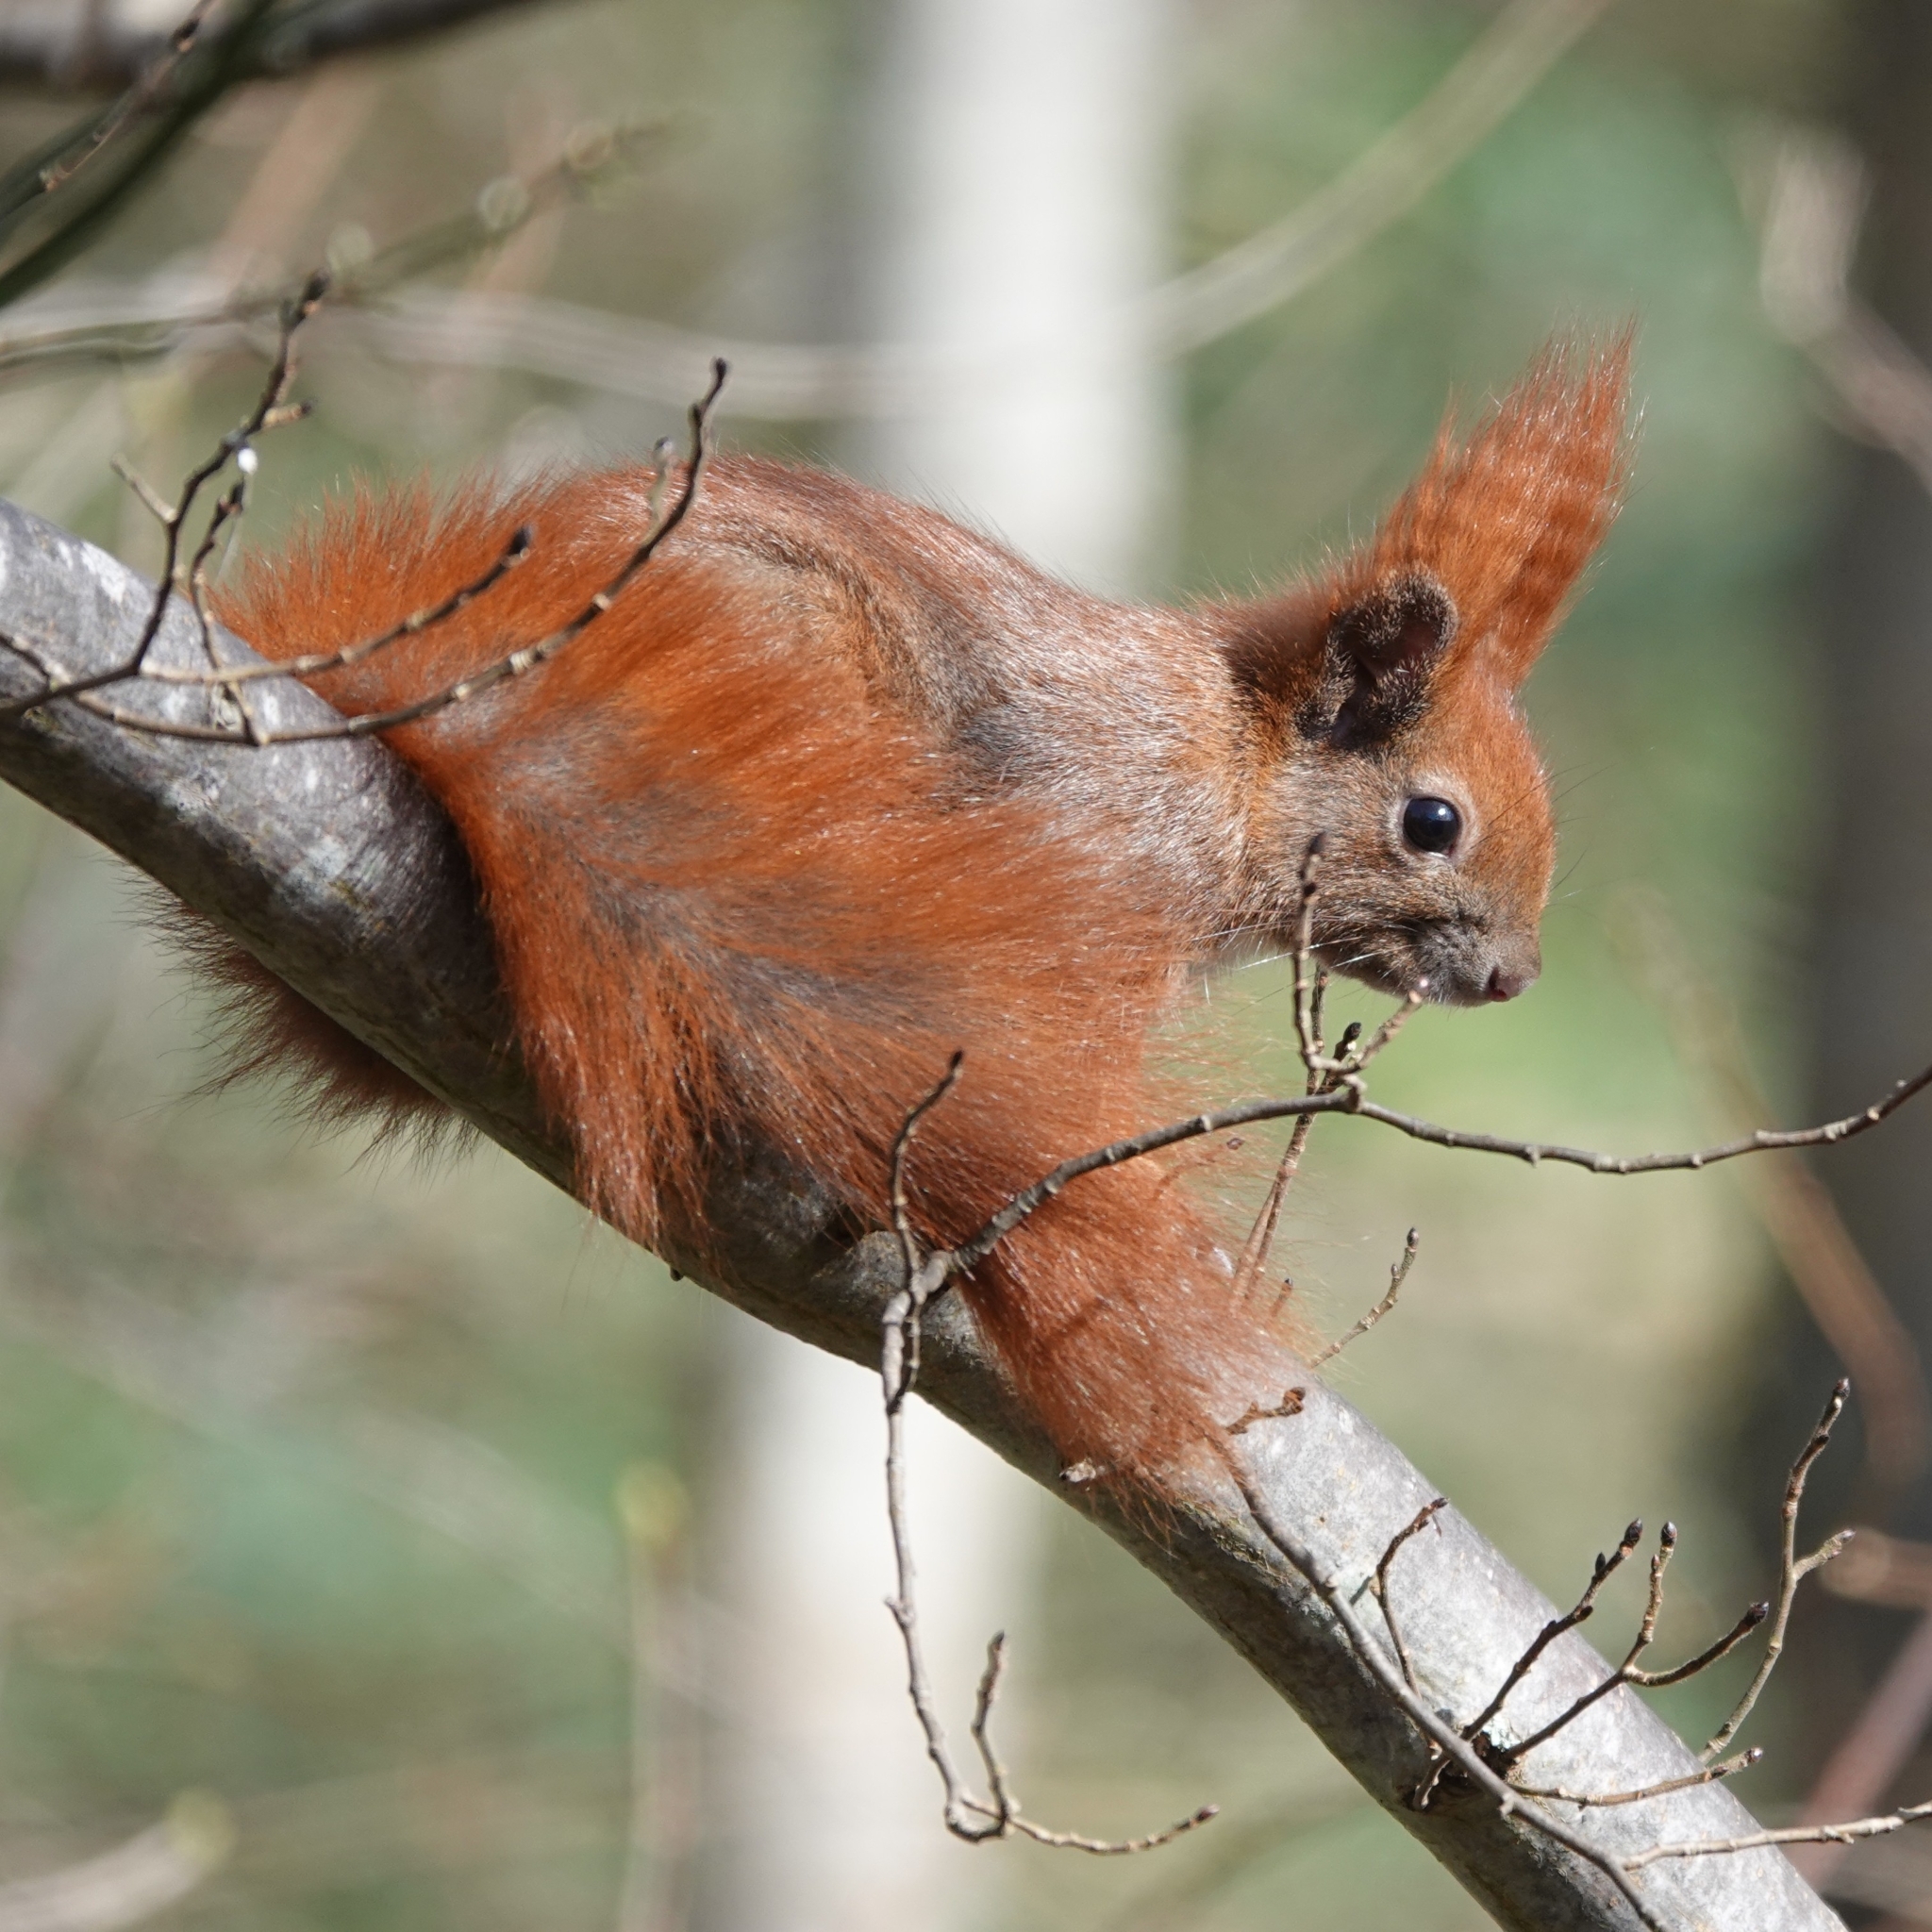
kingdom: Animalia
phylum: Chordata
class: Mammalia
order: Rodentia
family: Sciuridae
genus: Sciurus
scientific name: Sciurus vulgaris
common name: Eurasian red squirrel
